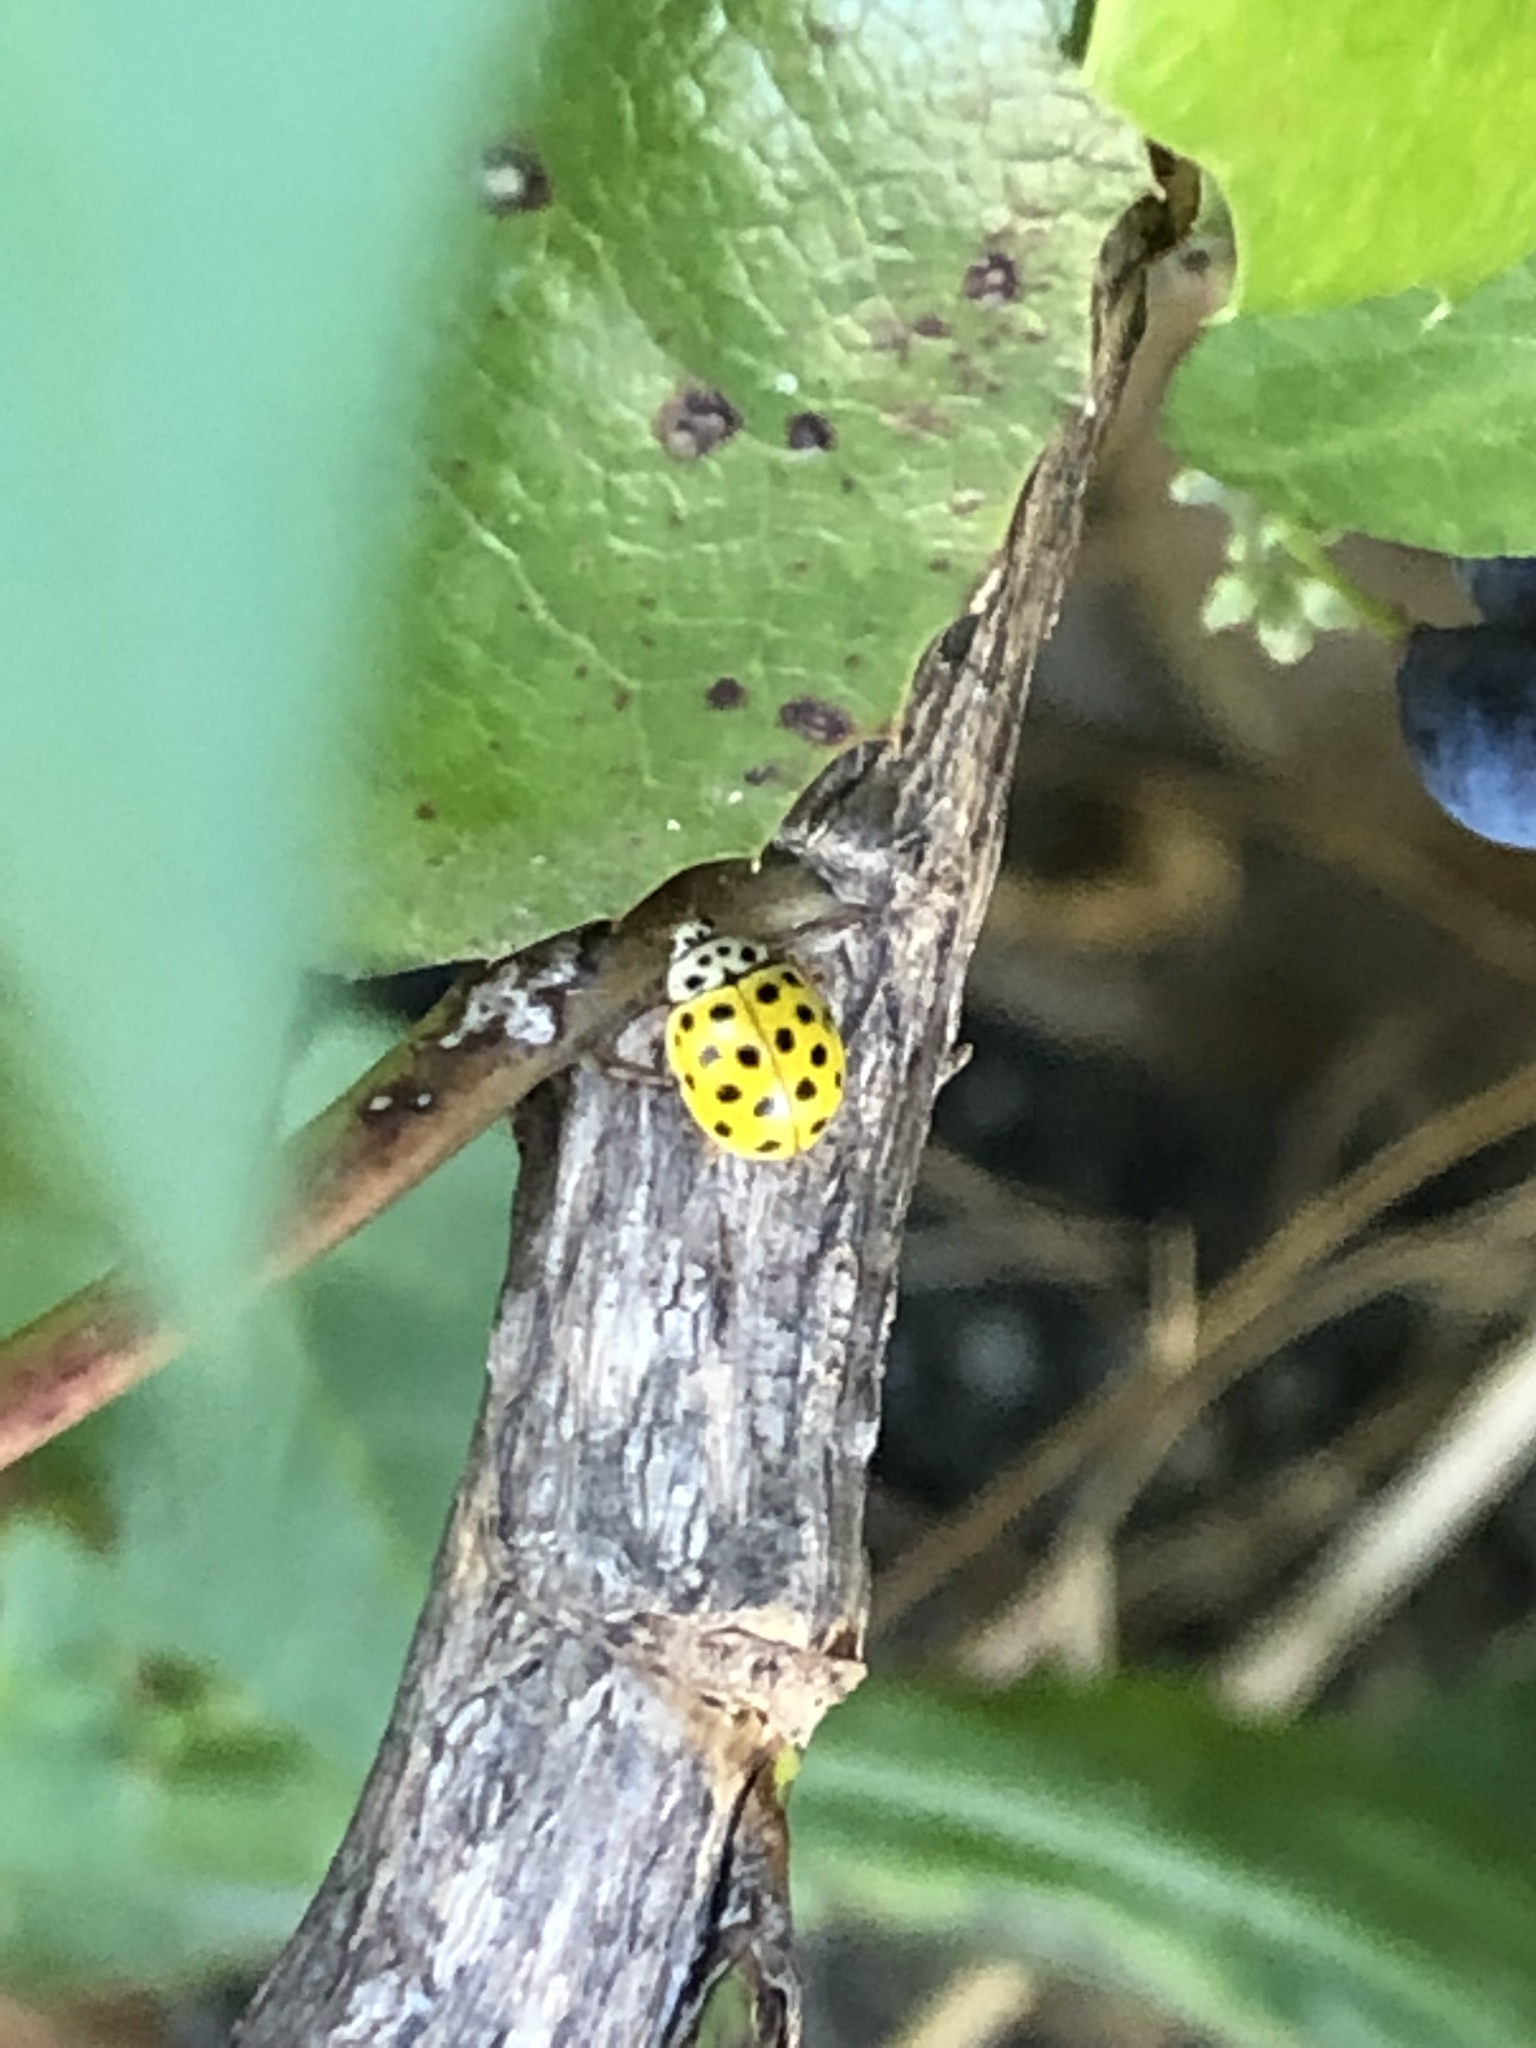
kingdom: Animalia
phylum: Arthropoda
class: Insecta
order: Coleoptera
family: Coccinellidae
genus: Psyllobora
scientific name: Psyllobora vigintiduopunctata
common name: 22-spot ladybird
